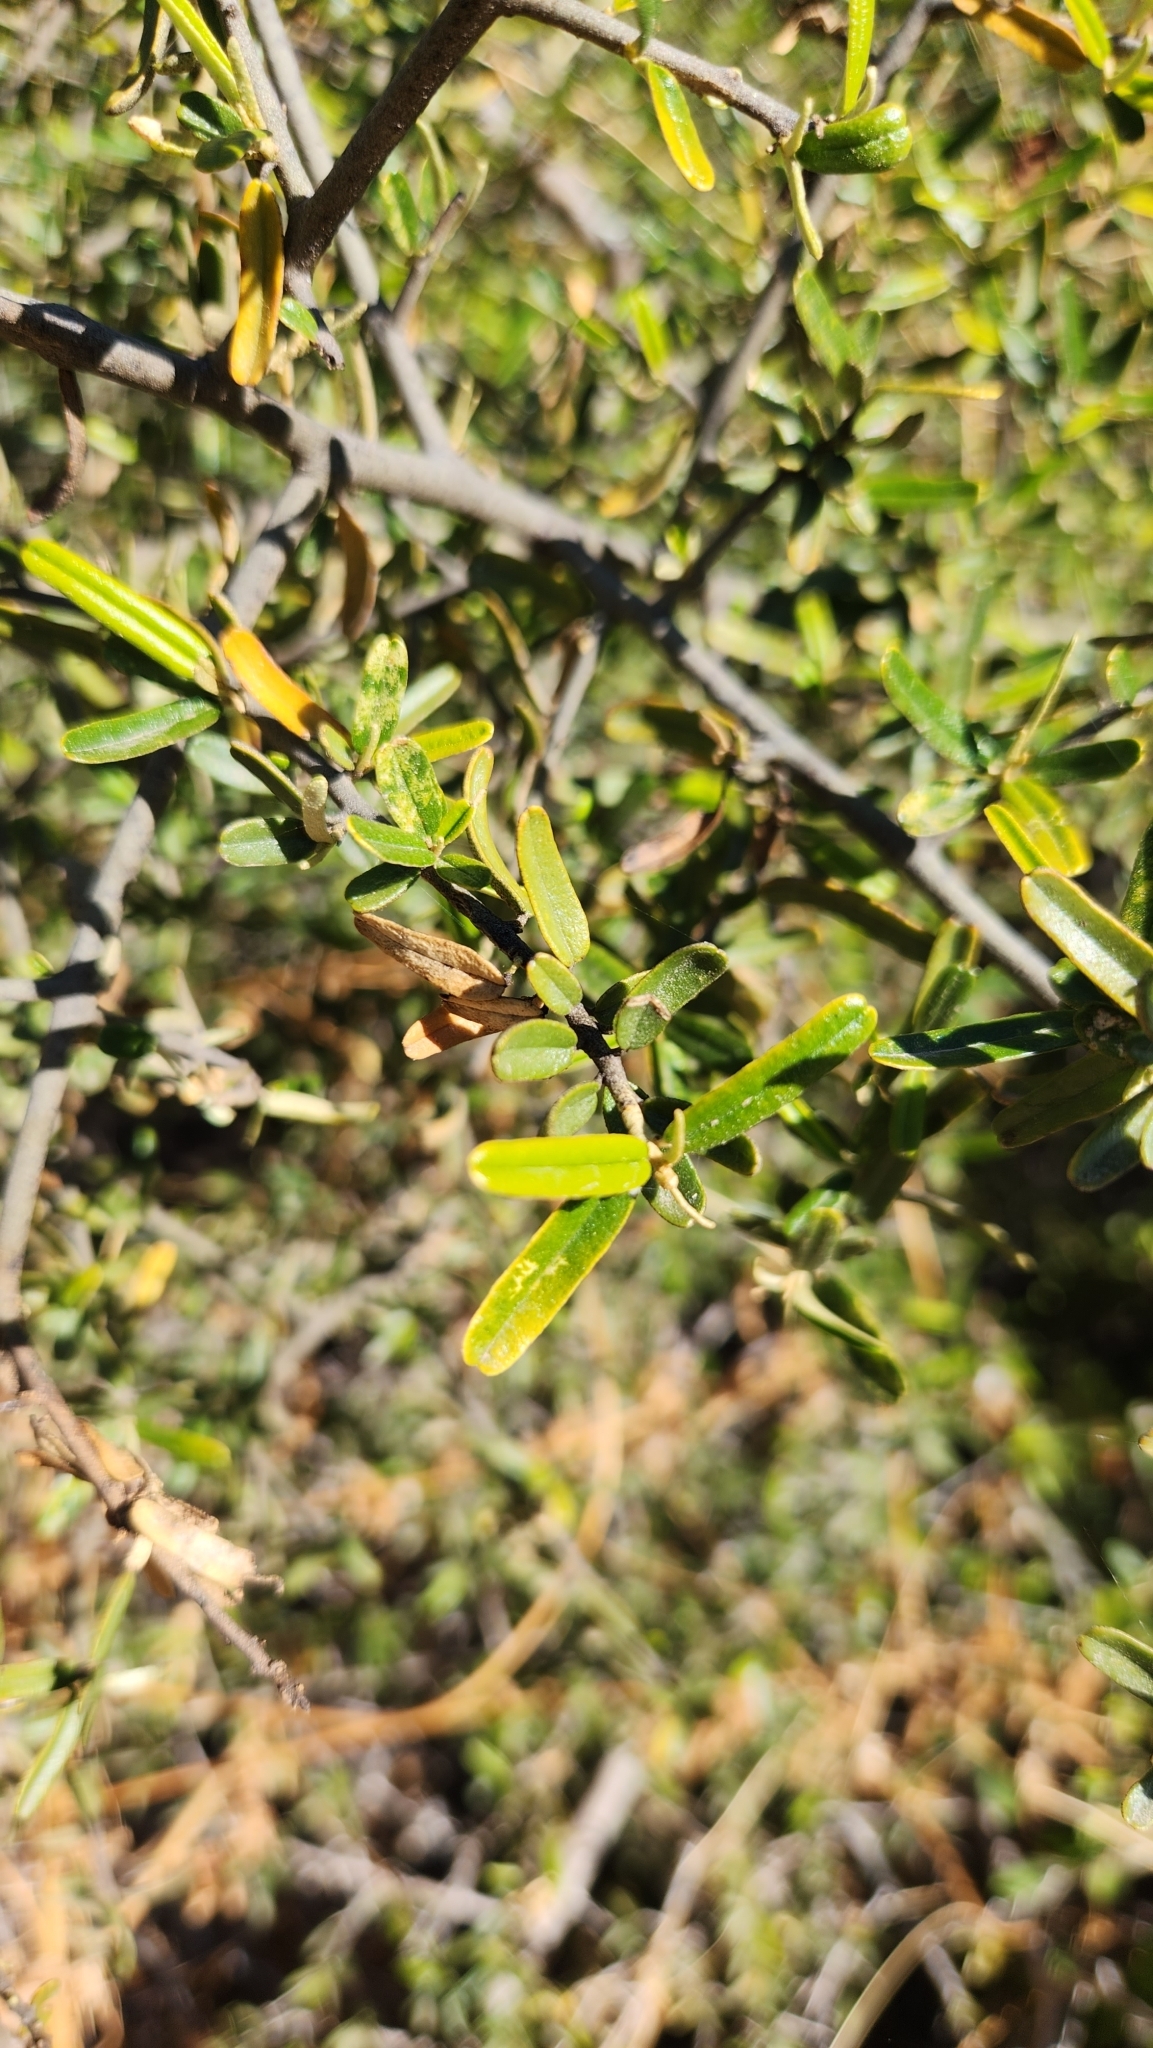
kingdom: Plantae
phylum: Tracheophyta
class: Magnoliopsida
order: Brassicales
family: Capparaceae
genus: Atamisquea
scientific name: Atamisquea emarginata
